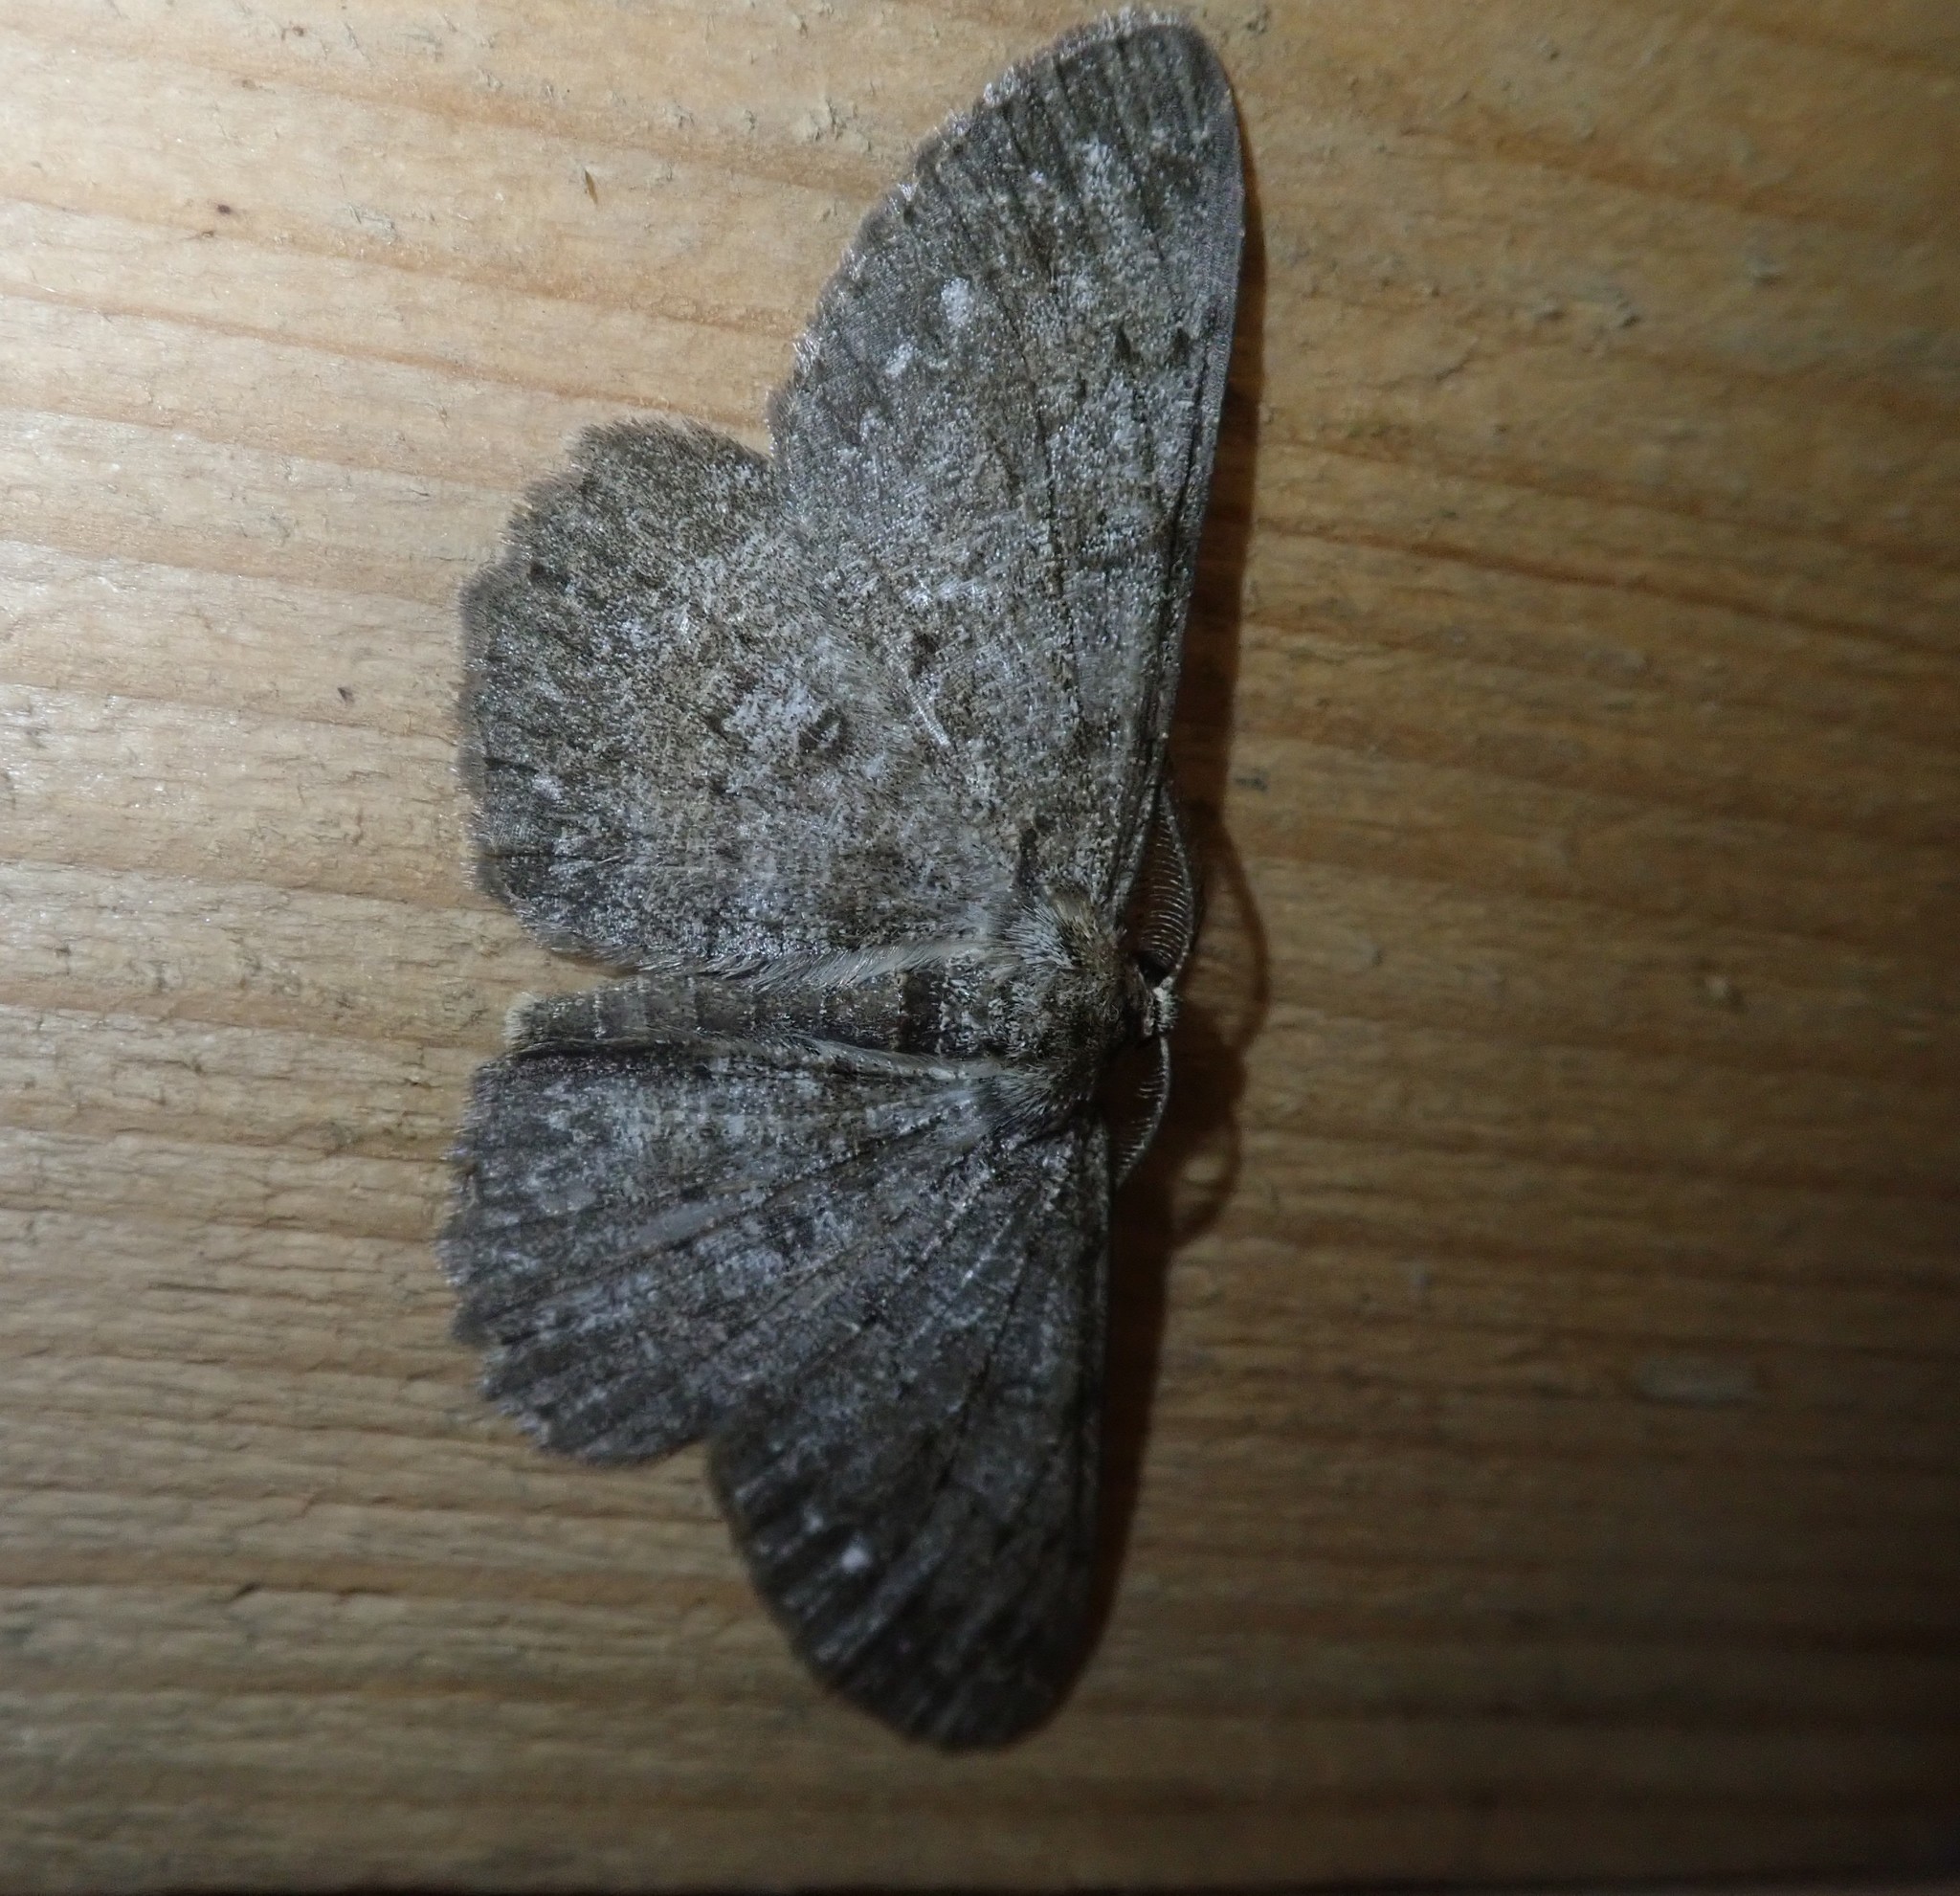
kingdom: Animalia
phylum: Arthropoda
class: Insecta
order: Lepidoptera
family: Geometridae
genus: Hypomecis
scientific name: Hypomecis punctinalis
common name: Pale oak beauty
